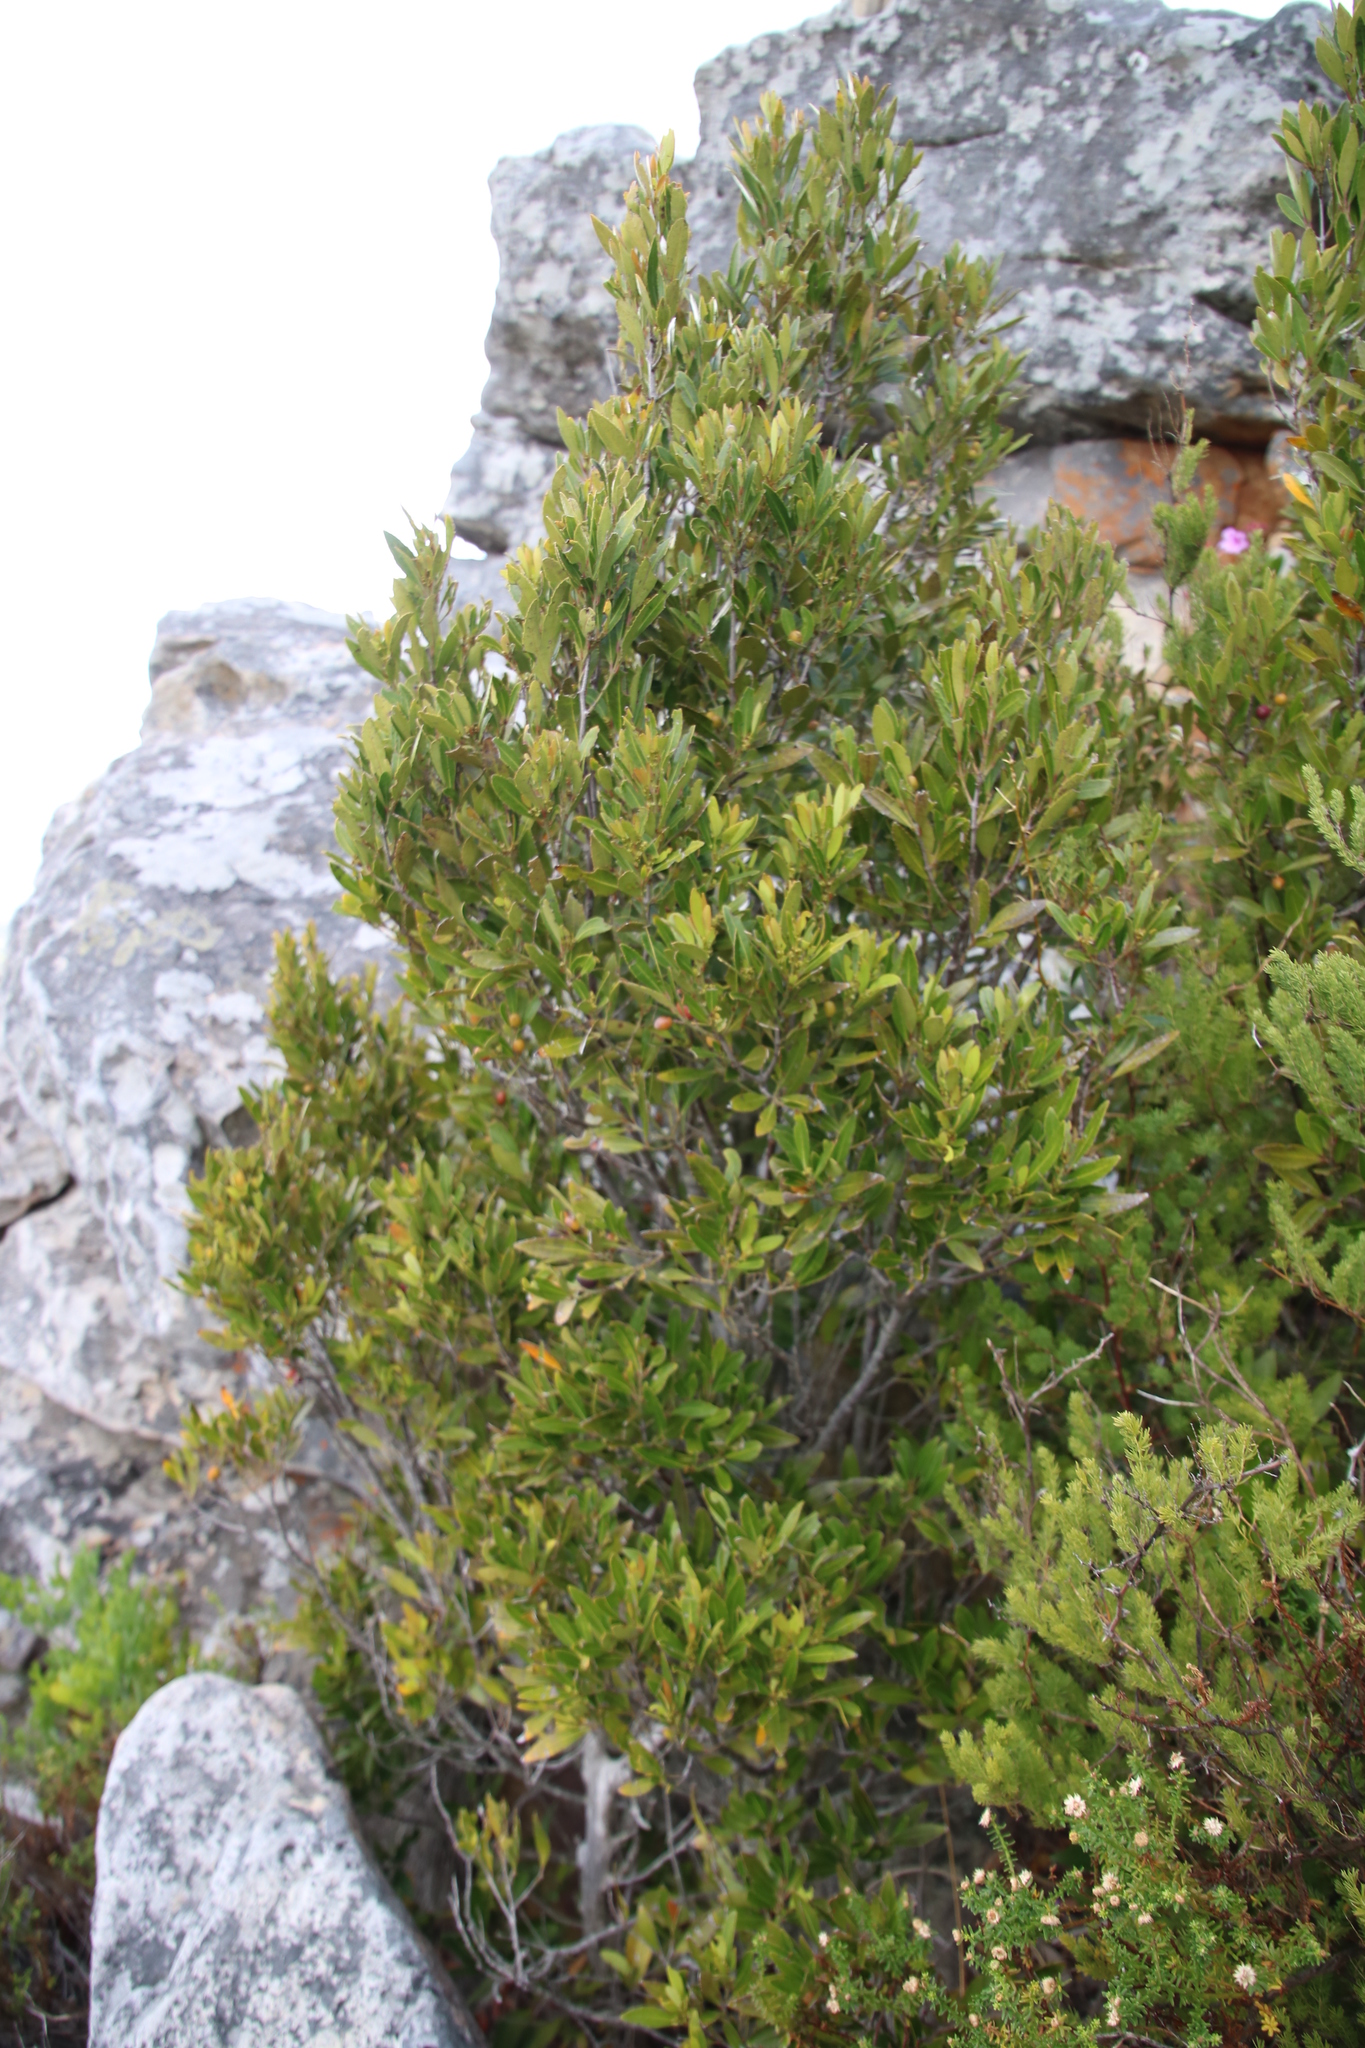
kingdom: Plantae
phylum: Tracheophyta
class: Magnoliopsida
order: Celastrales
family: Celastraceae
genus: Elaeodendron
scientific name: Elaeodendron schinoides
